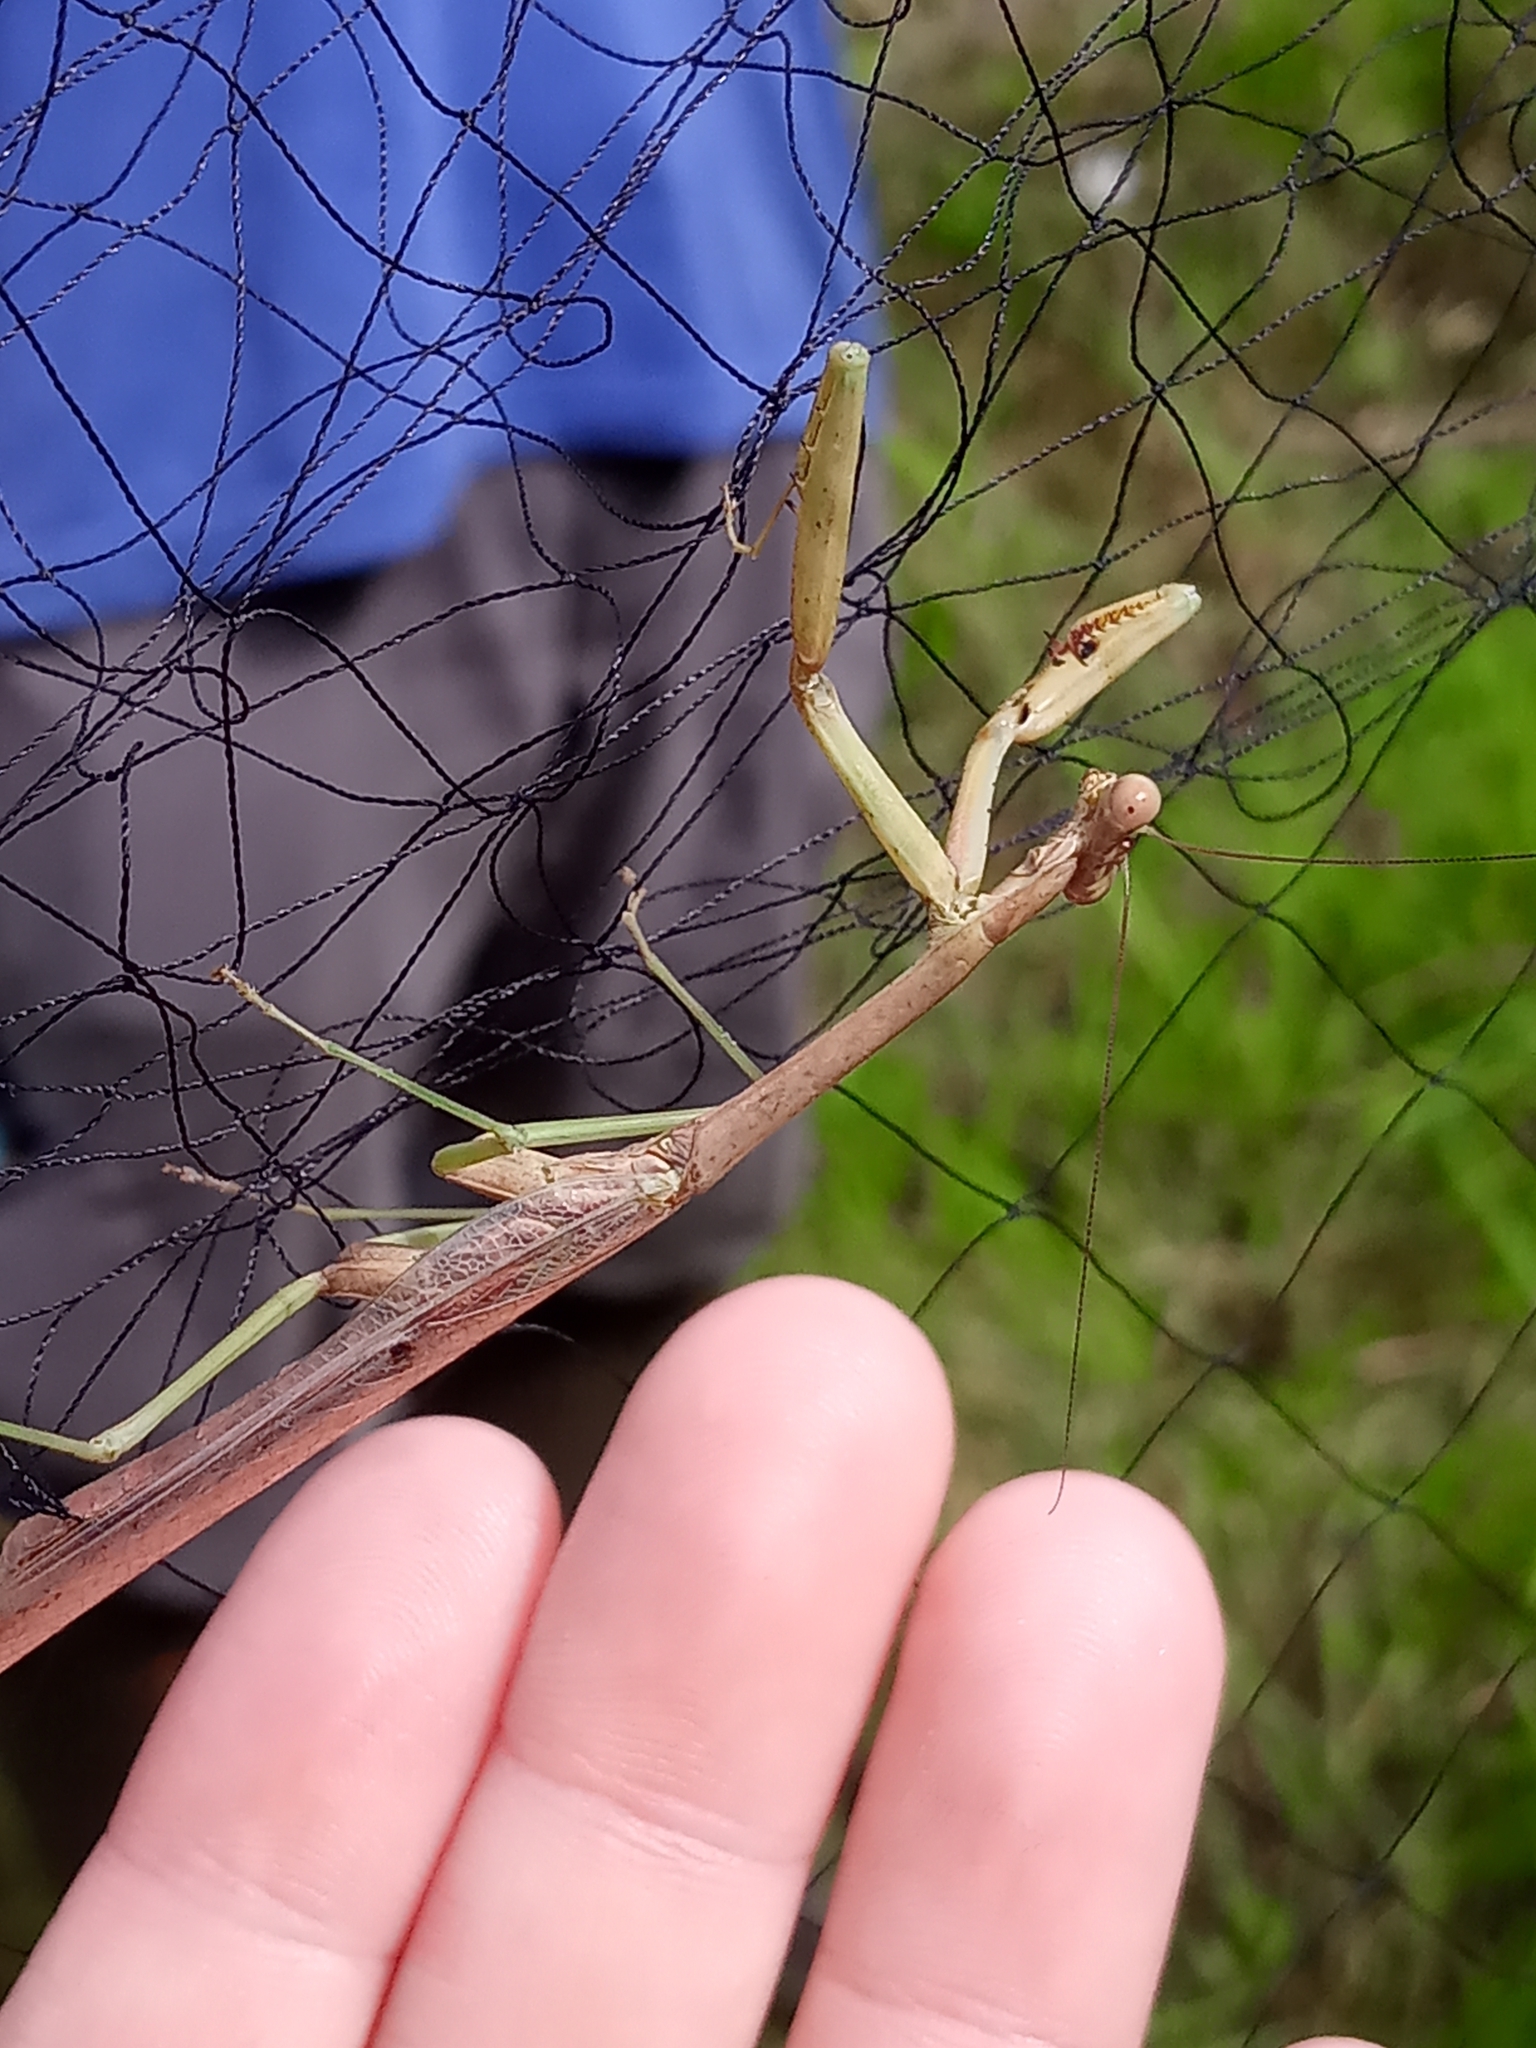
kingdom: Animalia
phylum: Arthropoda
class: Insecta
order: Mantodea
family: Mantidae
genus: Stagmomantis
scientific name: Stagmomantis carolina
